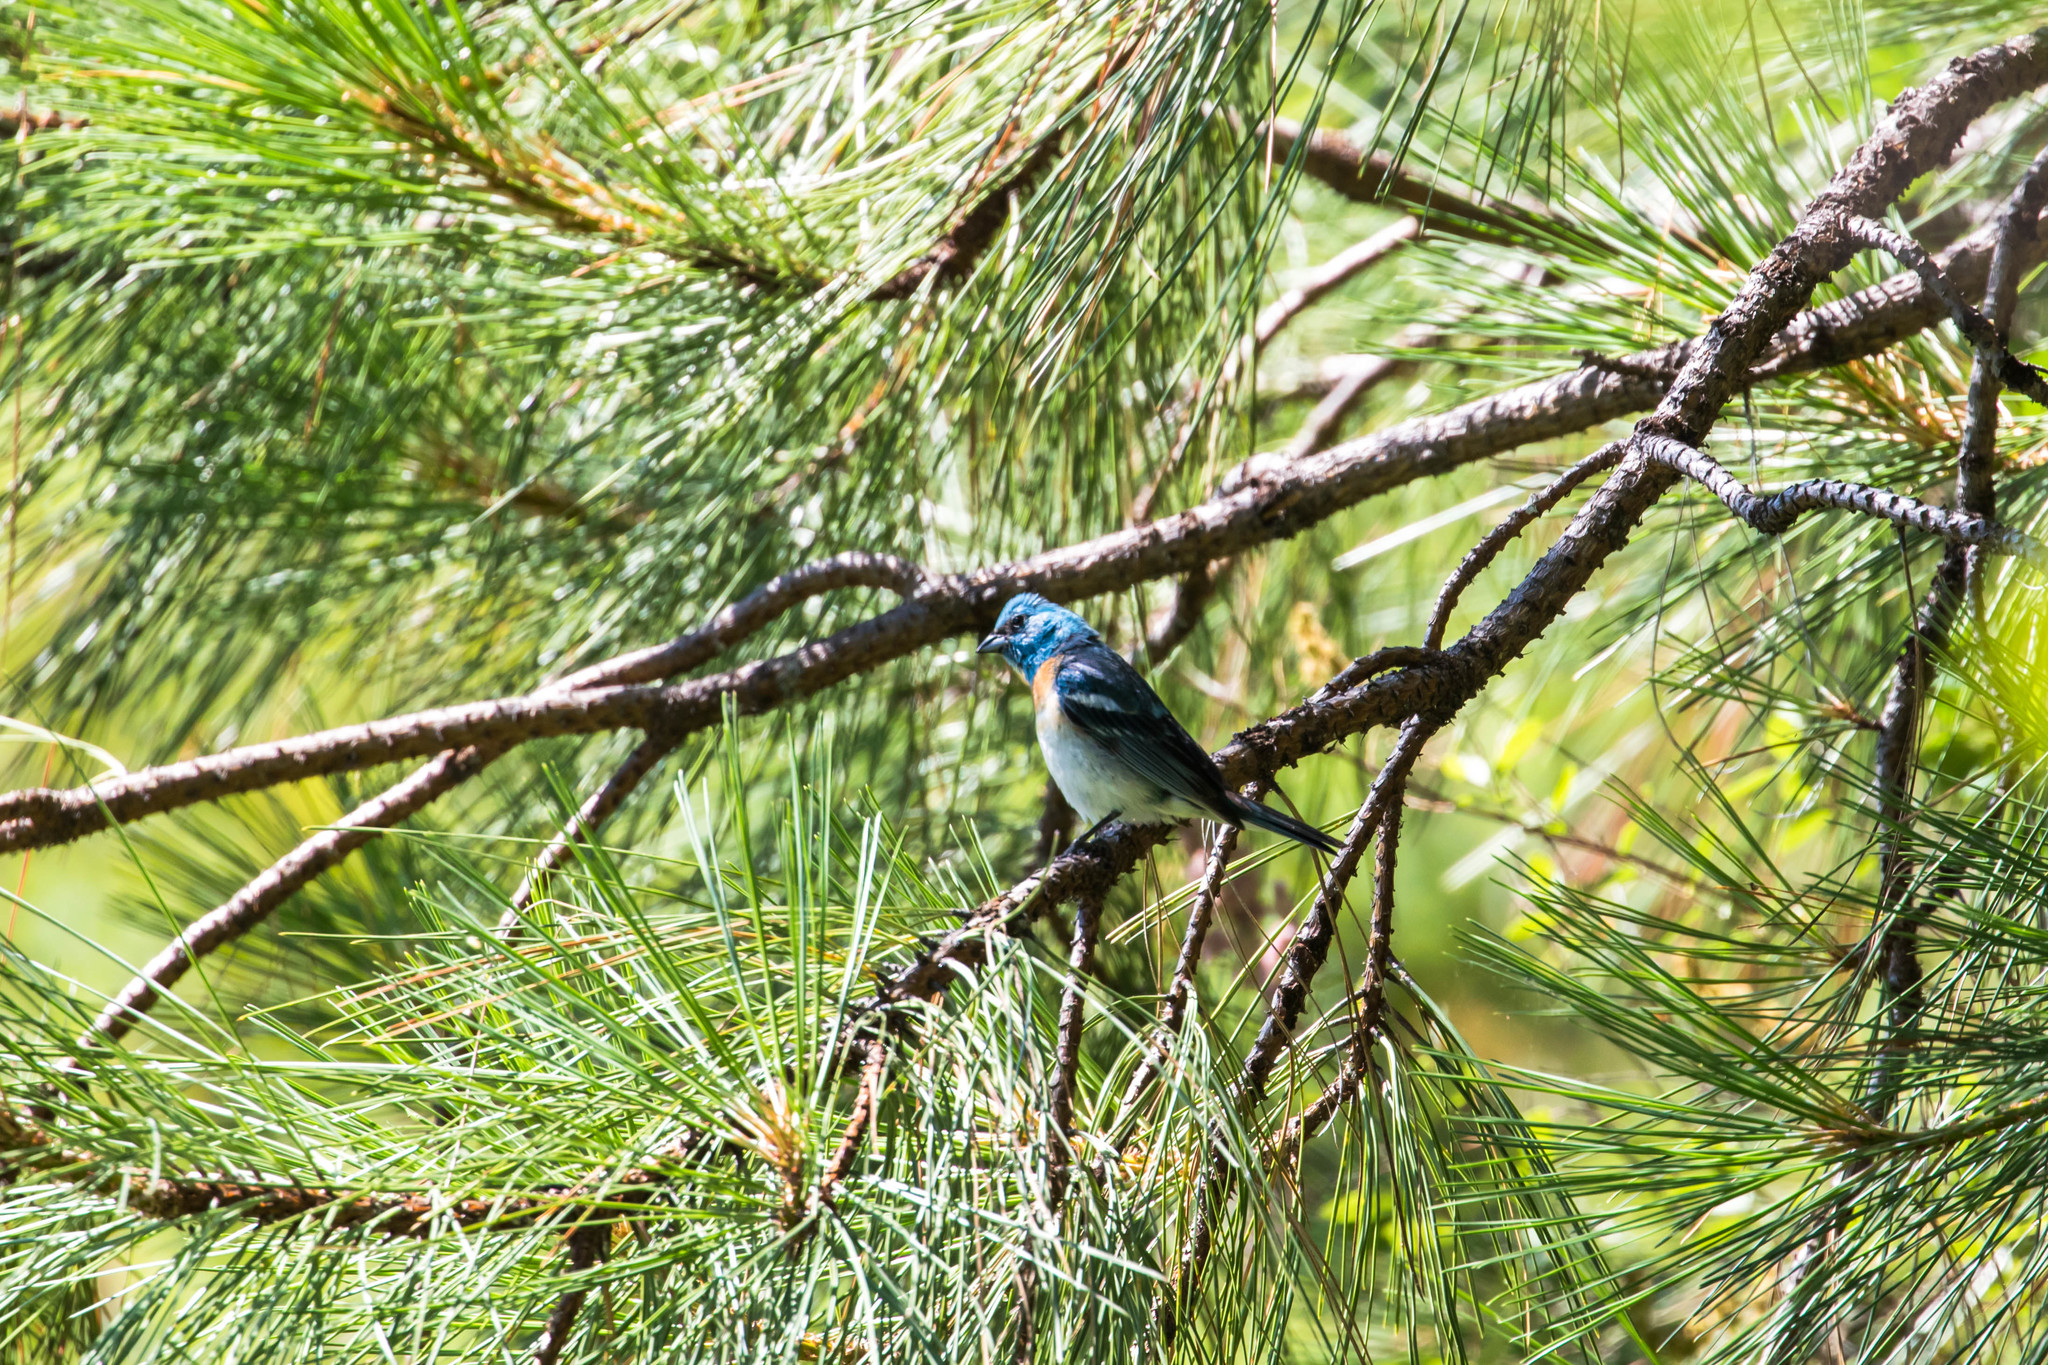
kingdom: Animalia
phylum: Chordata
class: Aves
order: Passeriformes
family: Cardinalidae
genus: Passerina
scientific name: Passerina amoena
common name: Lazuli bunting
